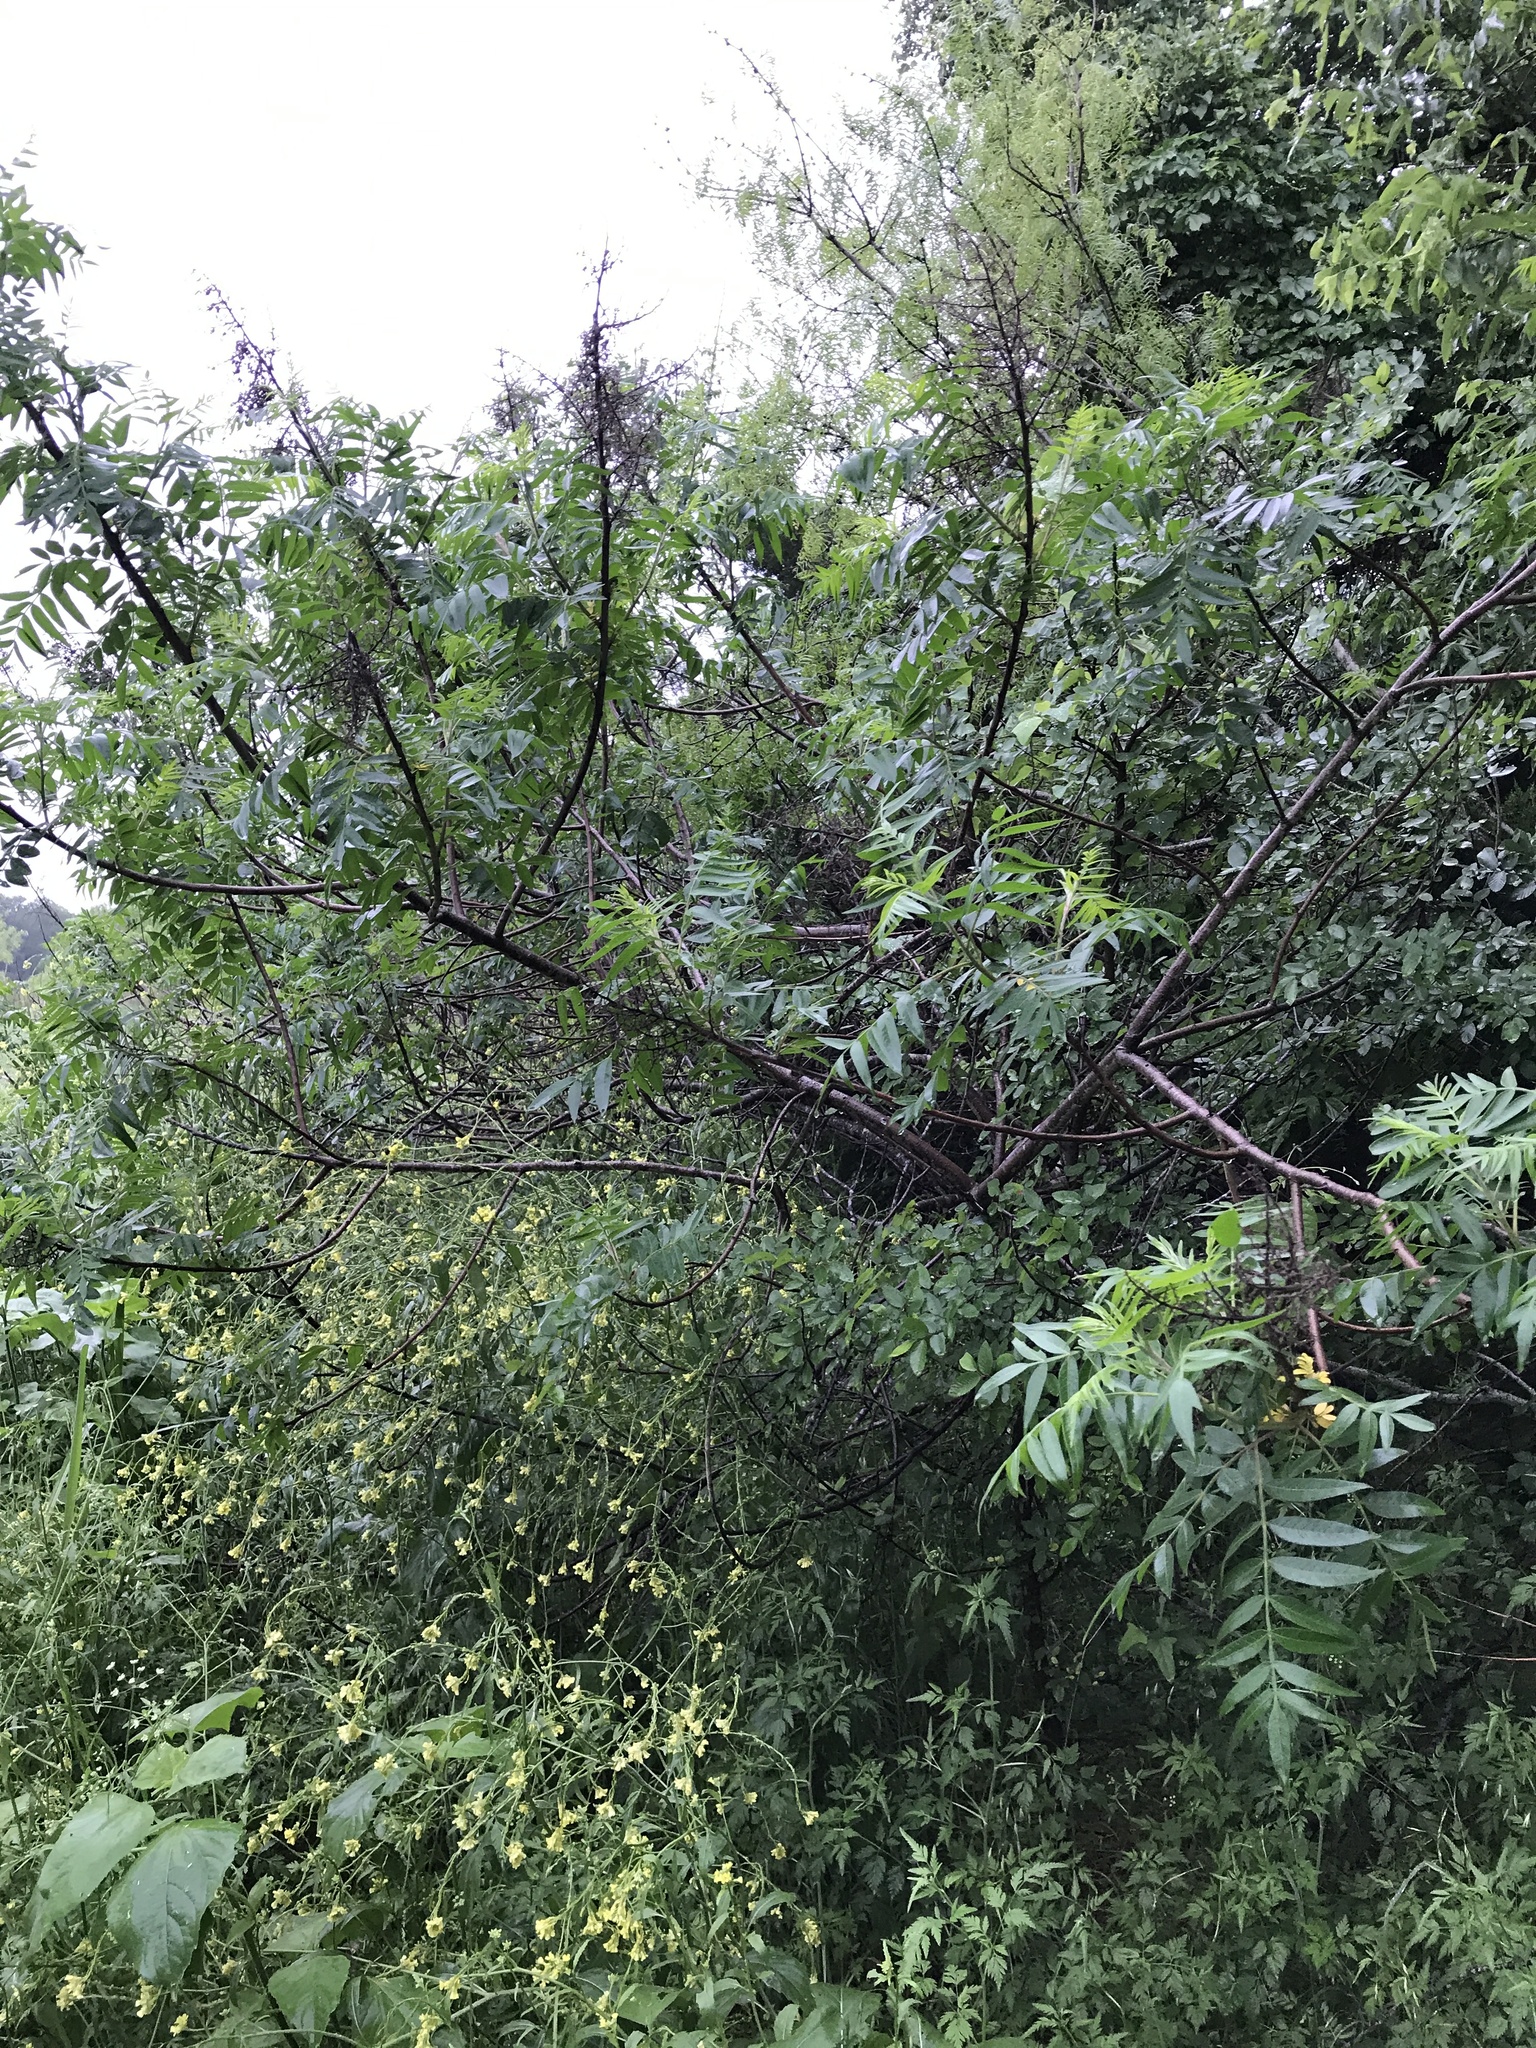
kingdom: Plantae
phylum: Tracheophyta
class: Magnoliopsida
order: Sapindales
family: Anacardiaceae
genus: Rhus
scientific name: Rhus lanceolata
